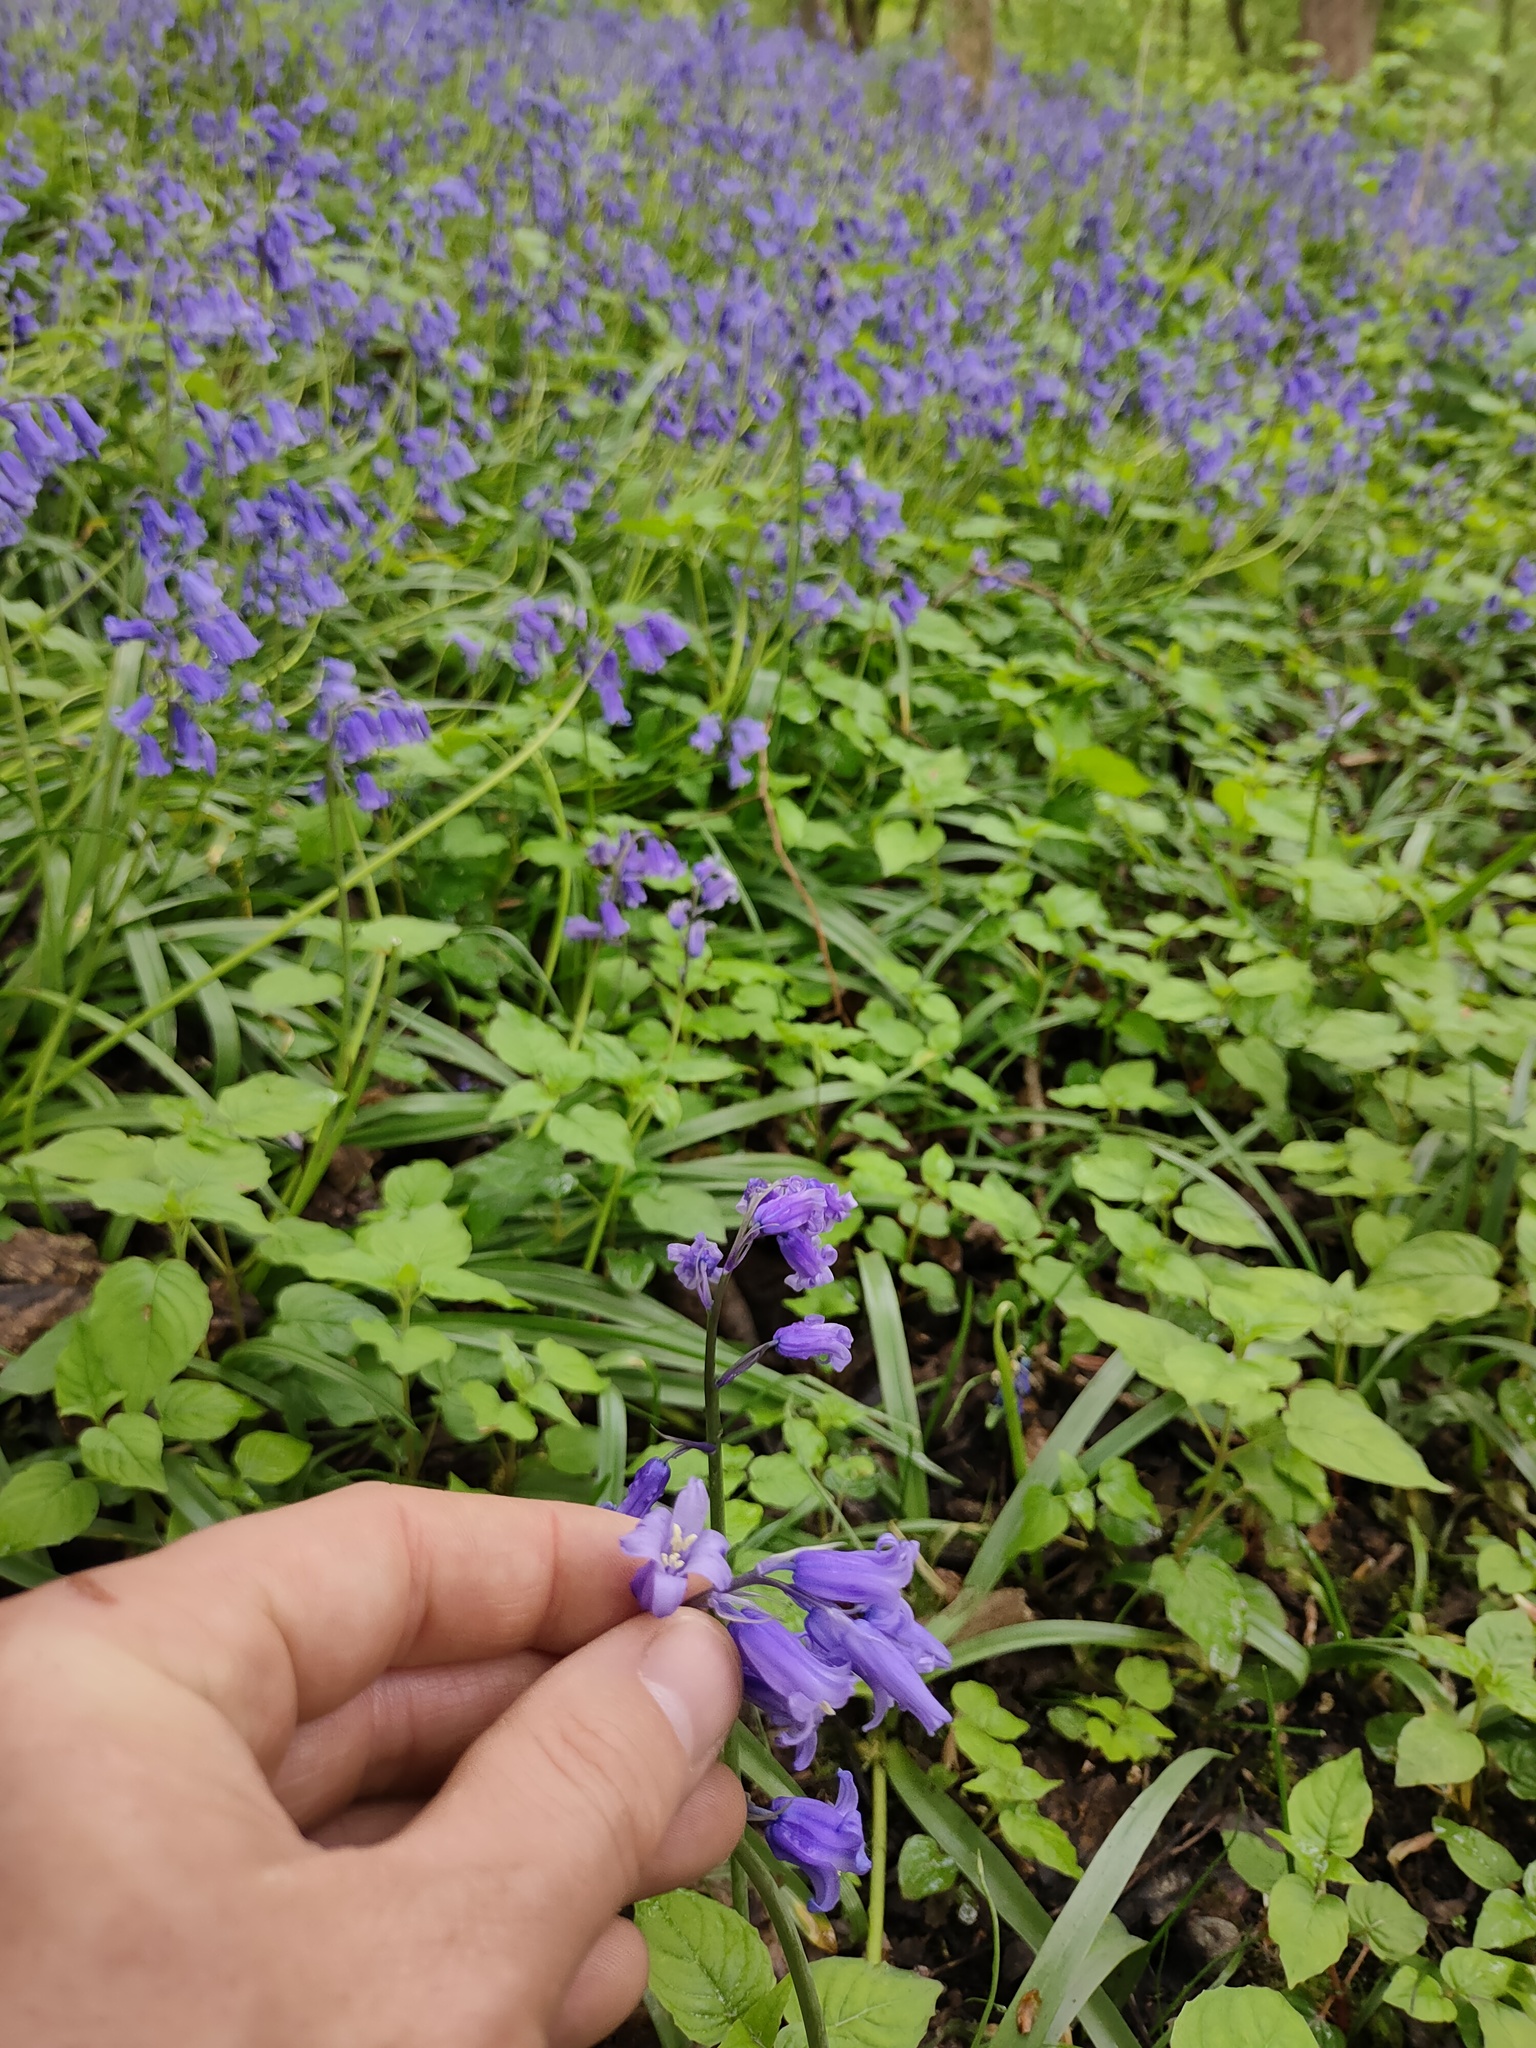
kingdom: Plantae
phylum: Tracheophyta
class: Liliopsida
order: Asparagales
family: Asparagaceae
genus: Hyacinthoides
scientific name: Hyacinthoides non-scripta
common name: Bluebell
